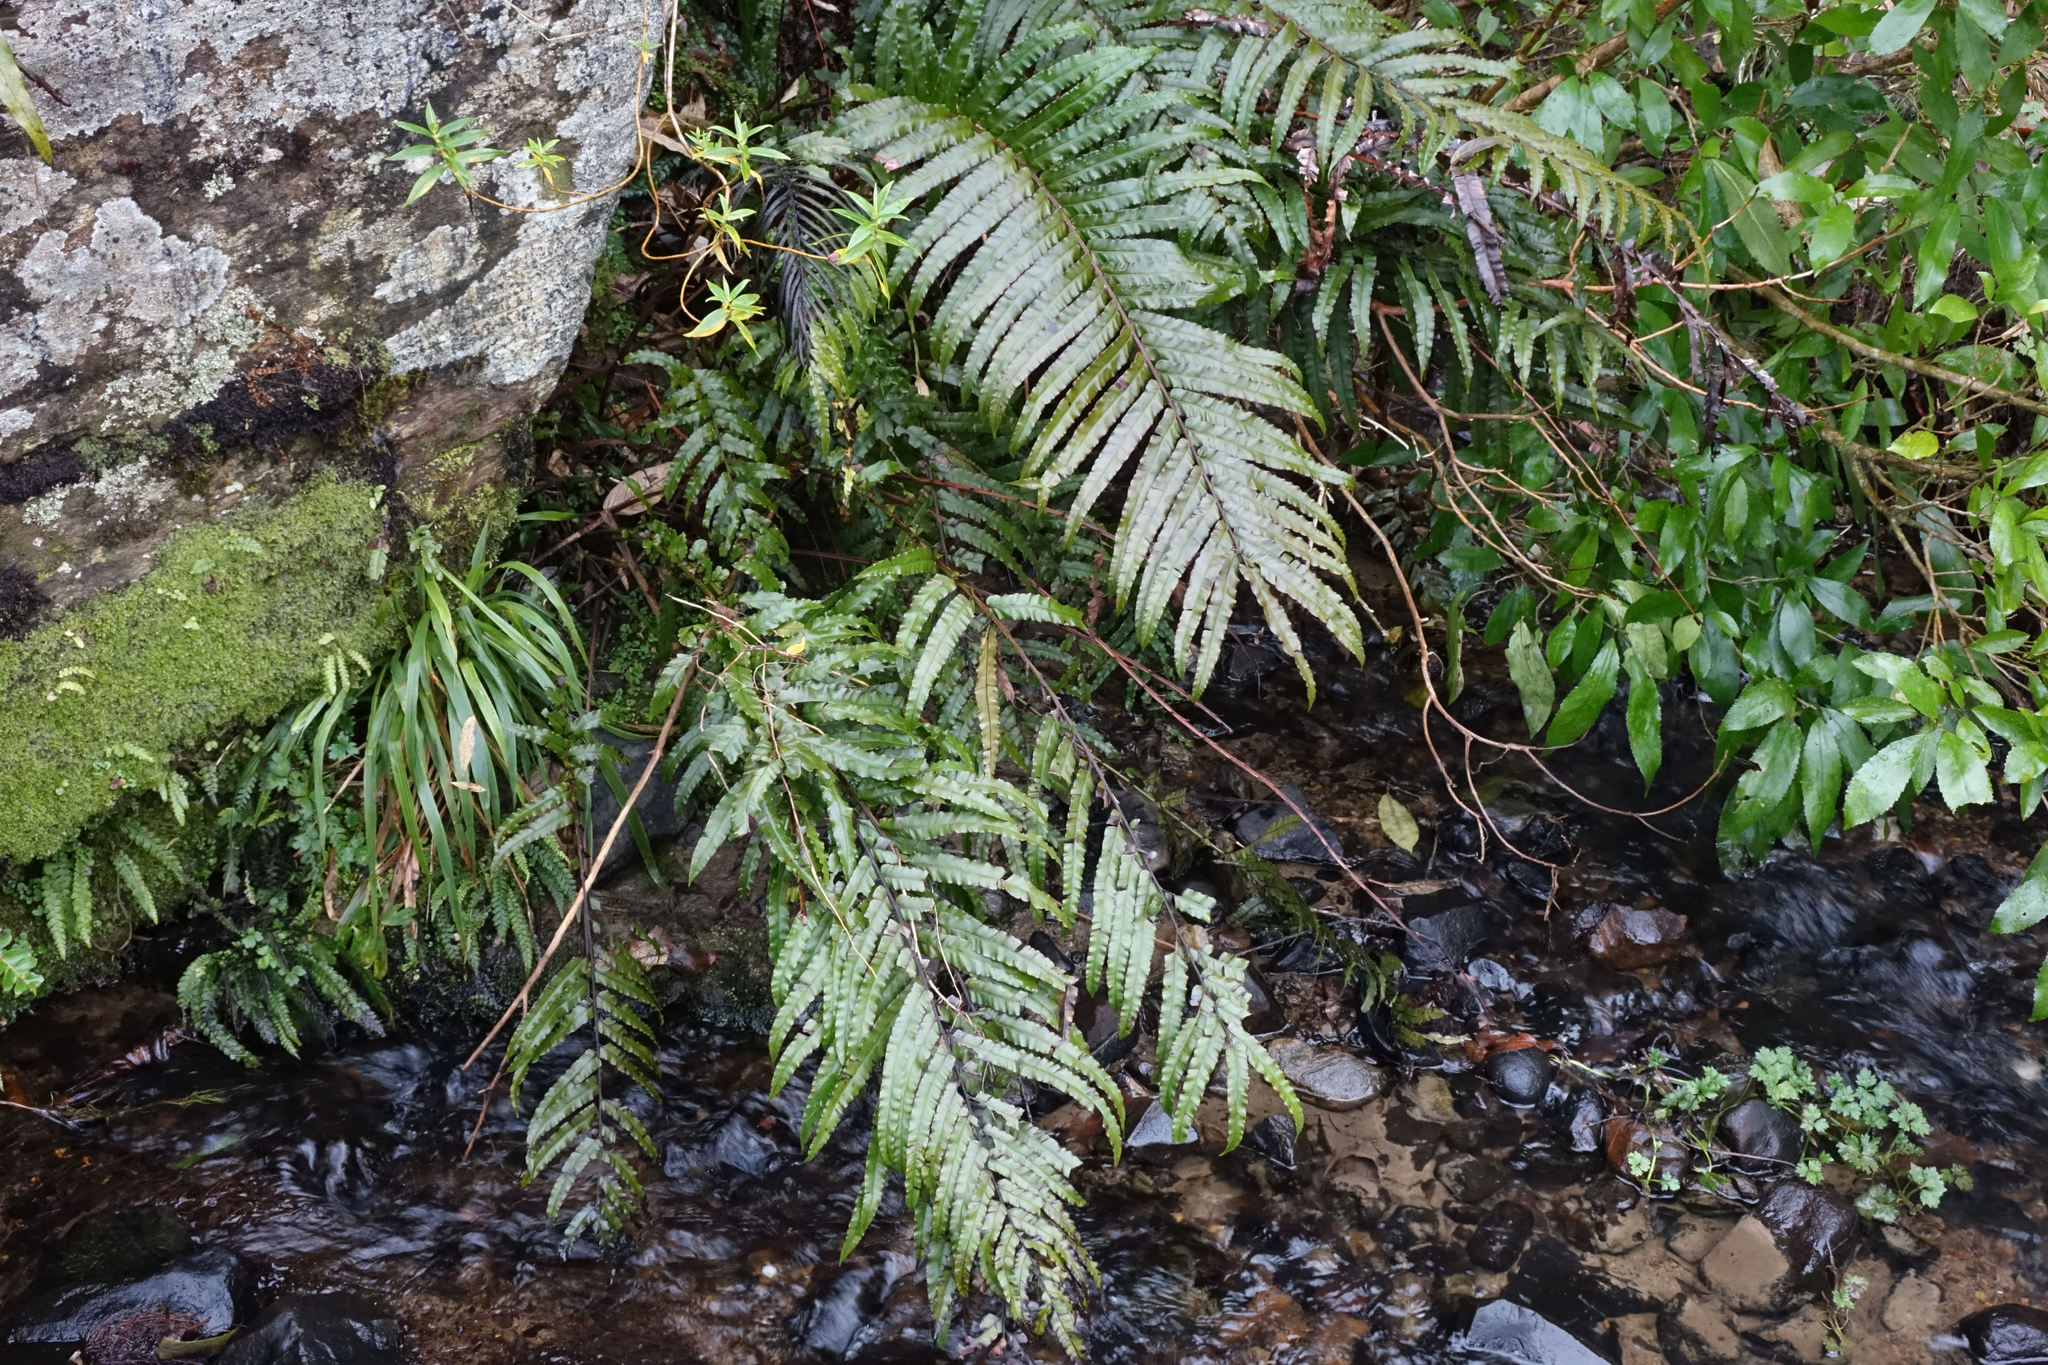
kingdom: Plantae
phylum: Tracheophyta
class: Polypodiopsida
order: Polypodiales
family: Blechnaceae
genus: Parablechnum
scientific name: Parablechnum novae-zelandiae
